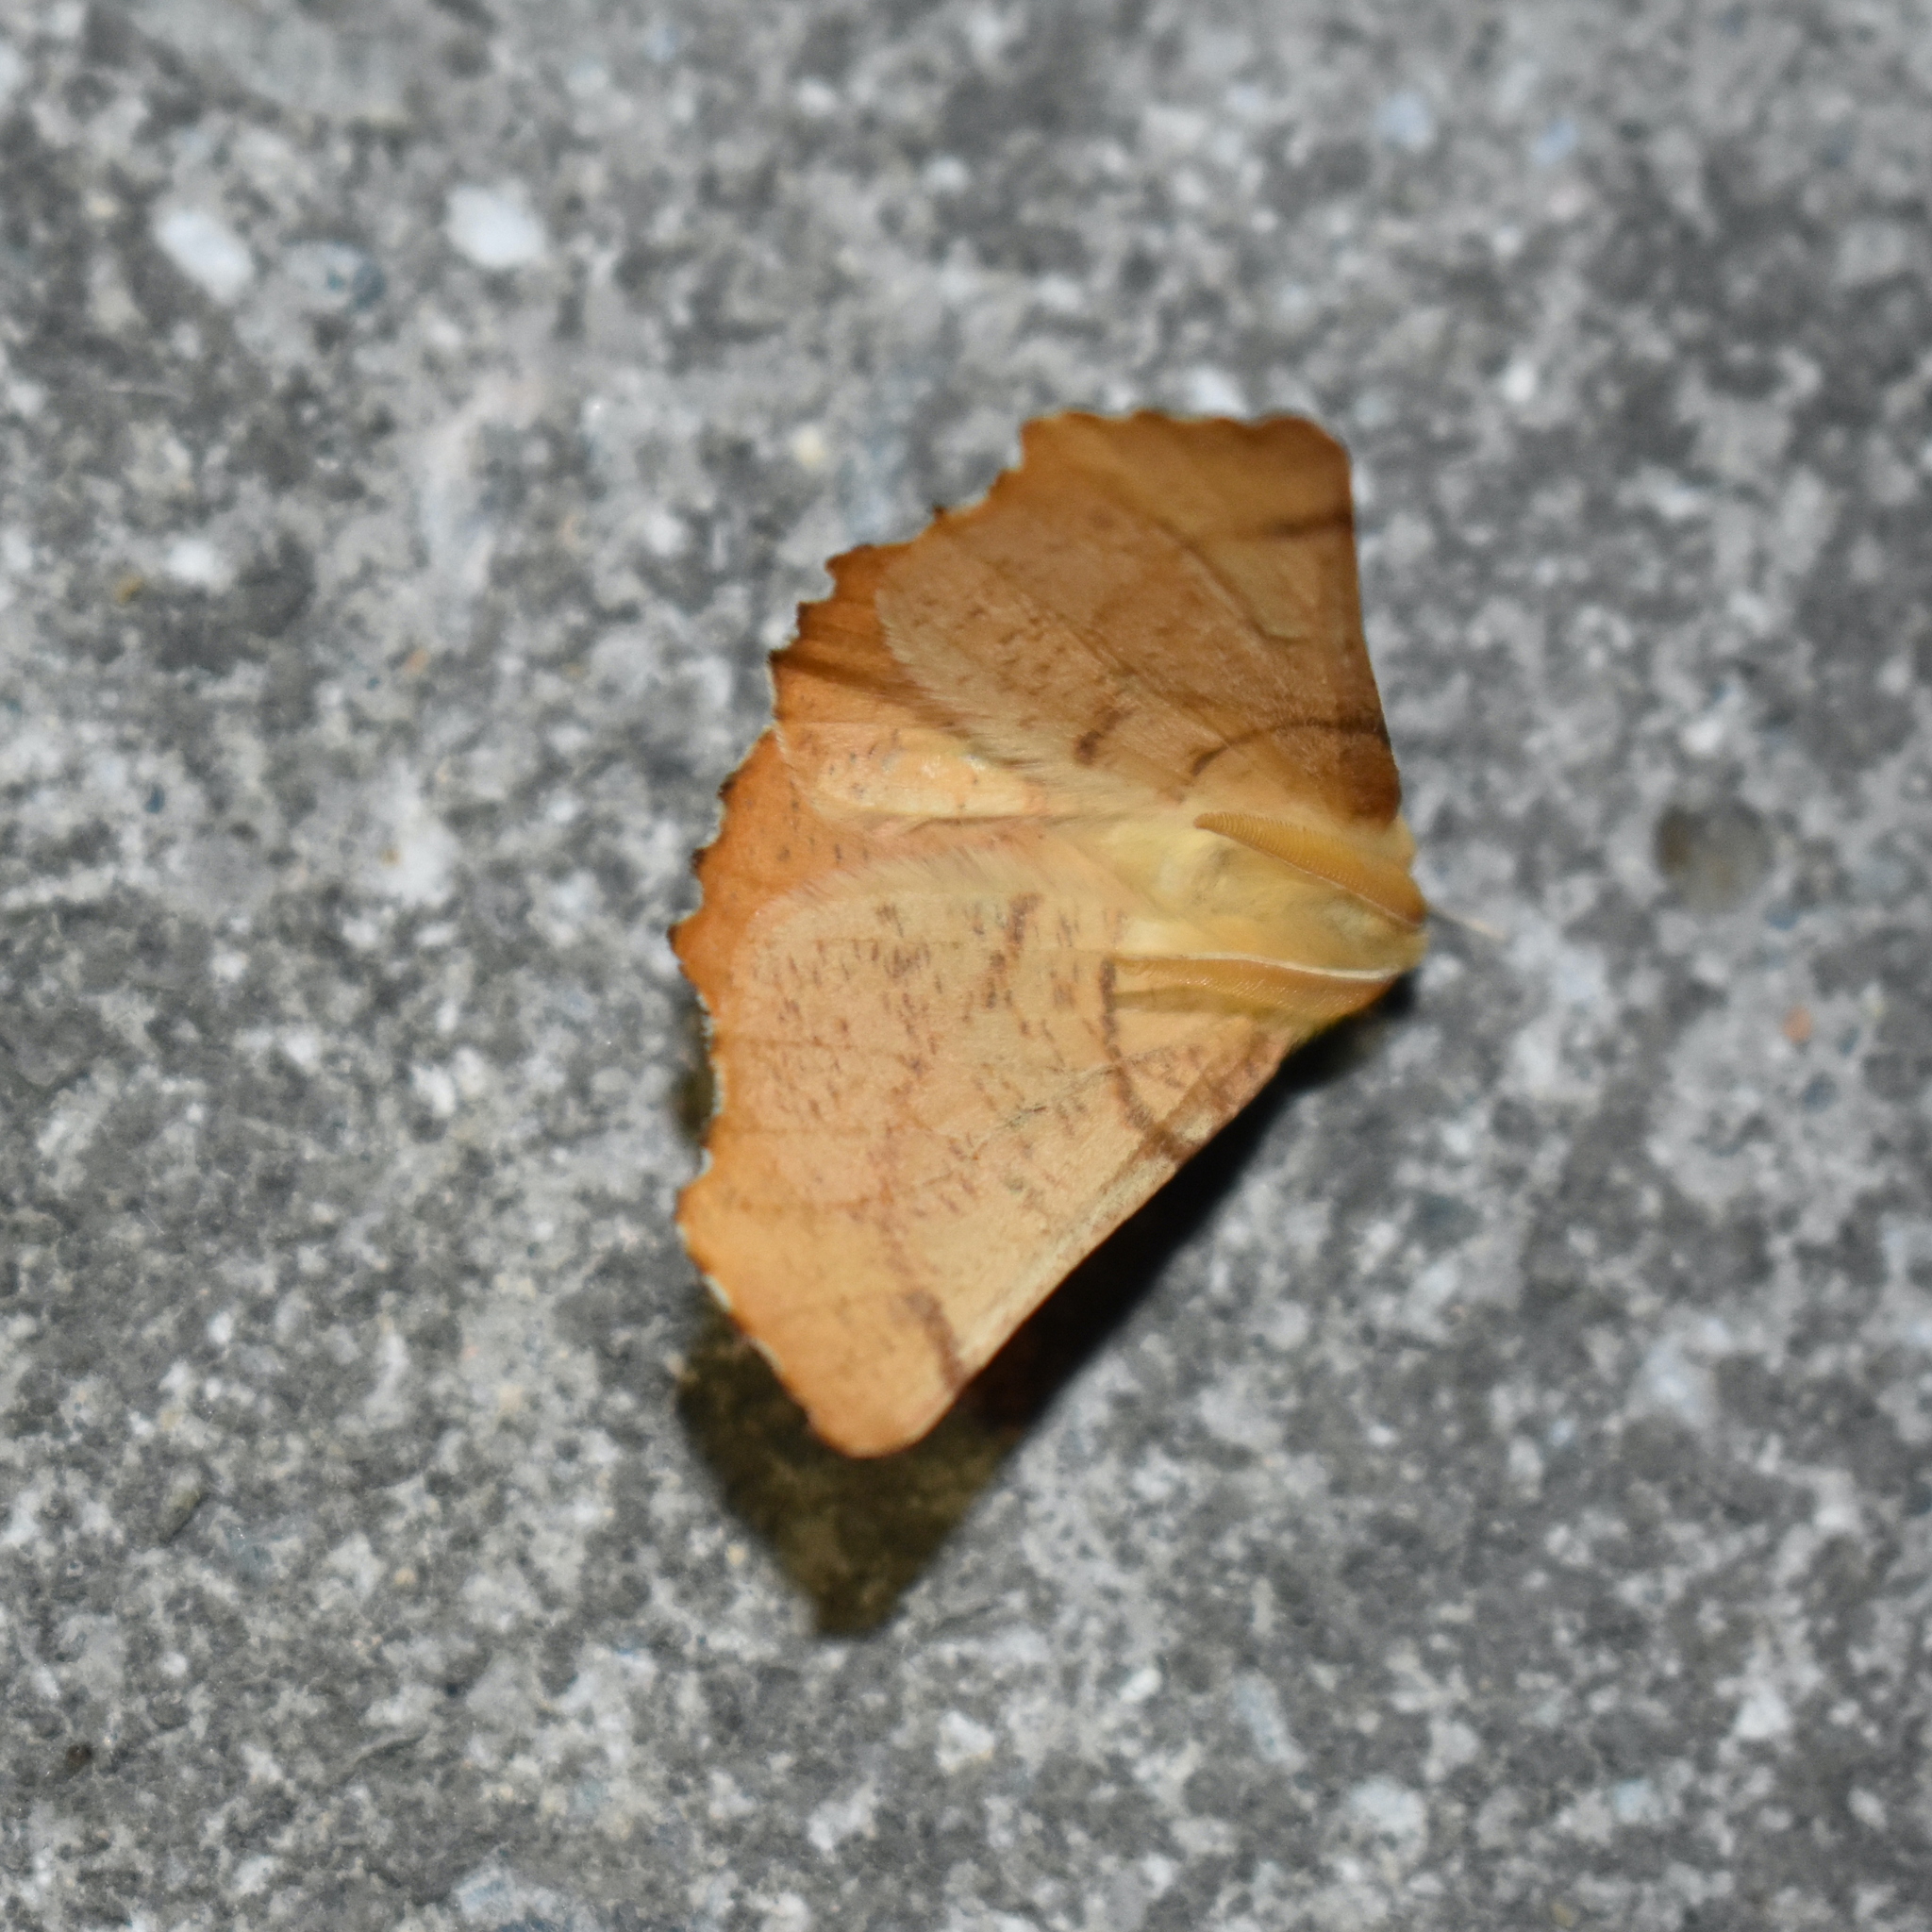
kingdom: Animalia
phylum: Arthropoda
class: Insecta
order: Lepidoptera
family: Geometridae
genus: Ennomos
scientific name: Ennomos alniaria
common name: Canary-shouldered thorn
